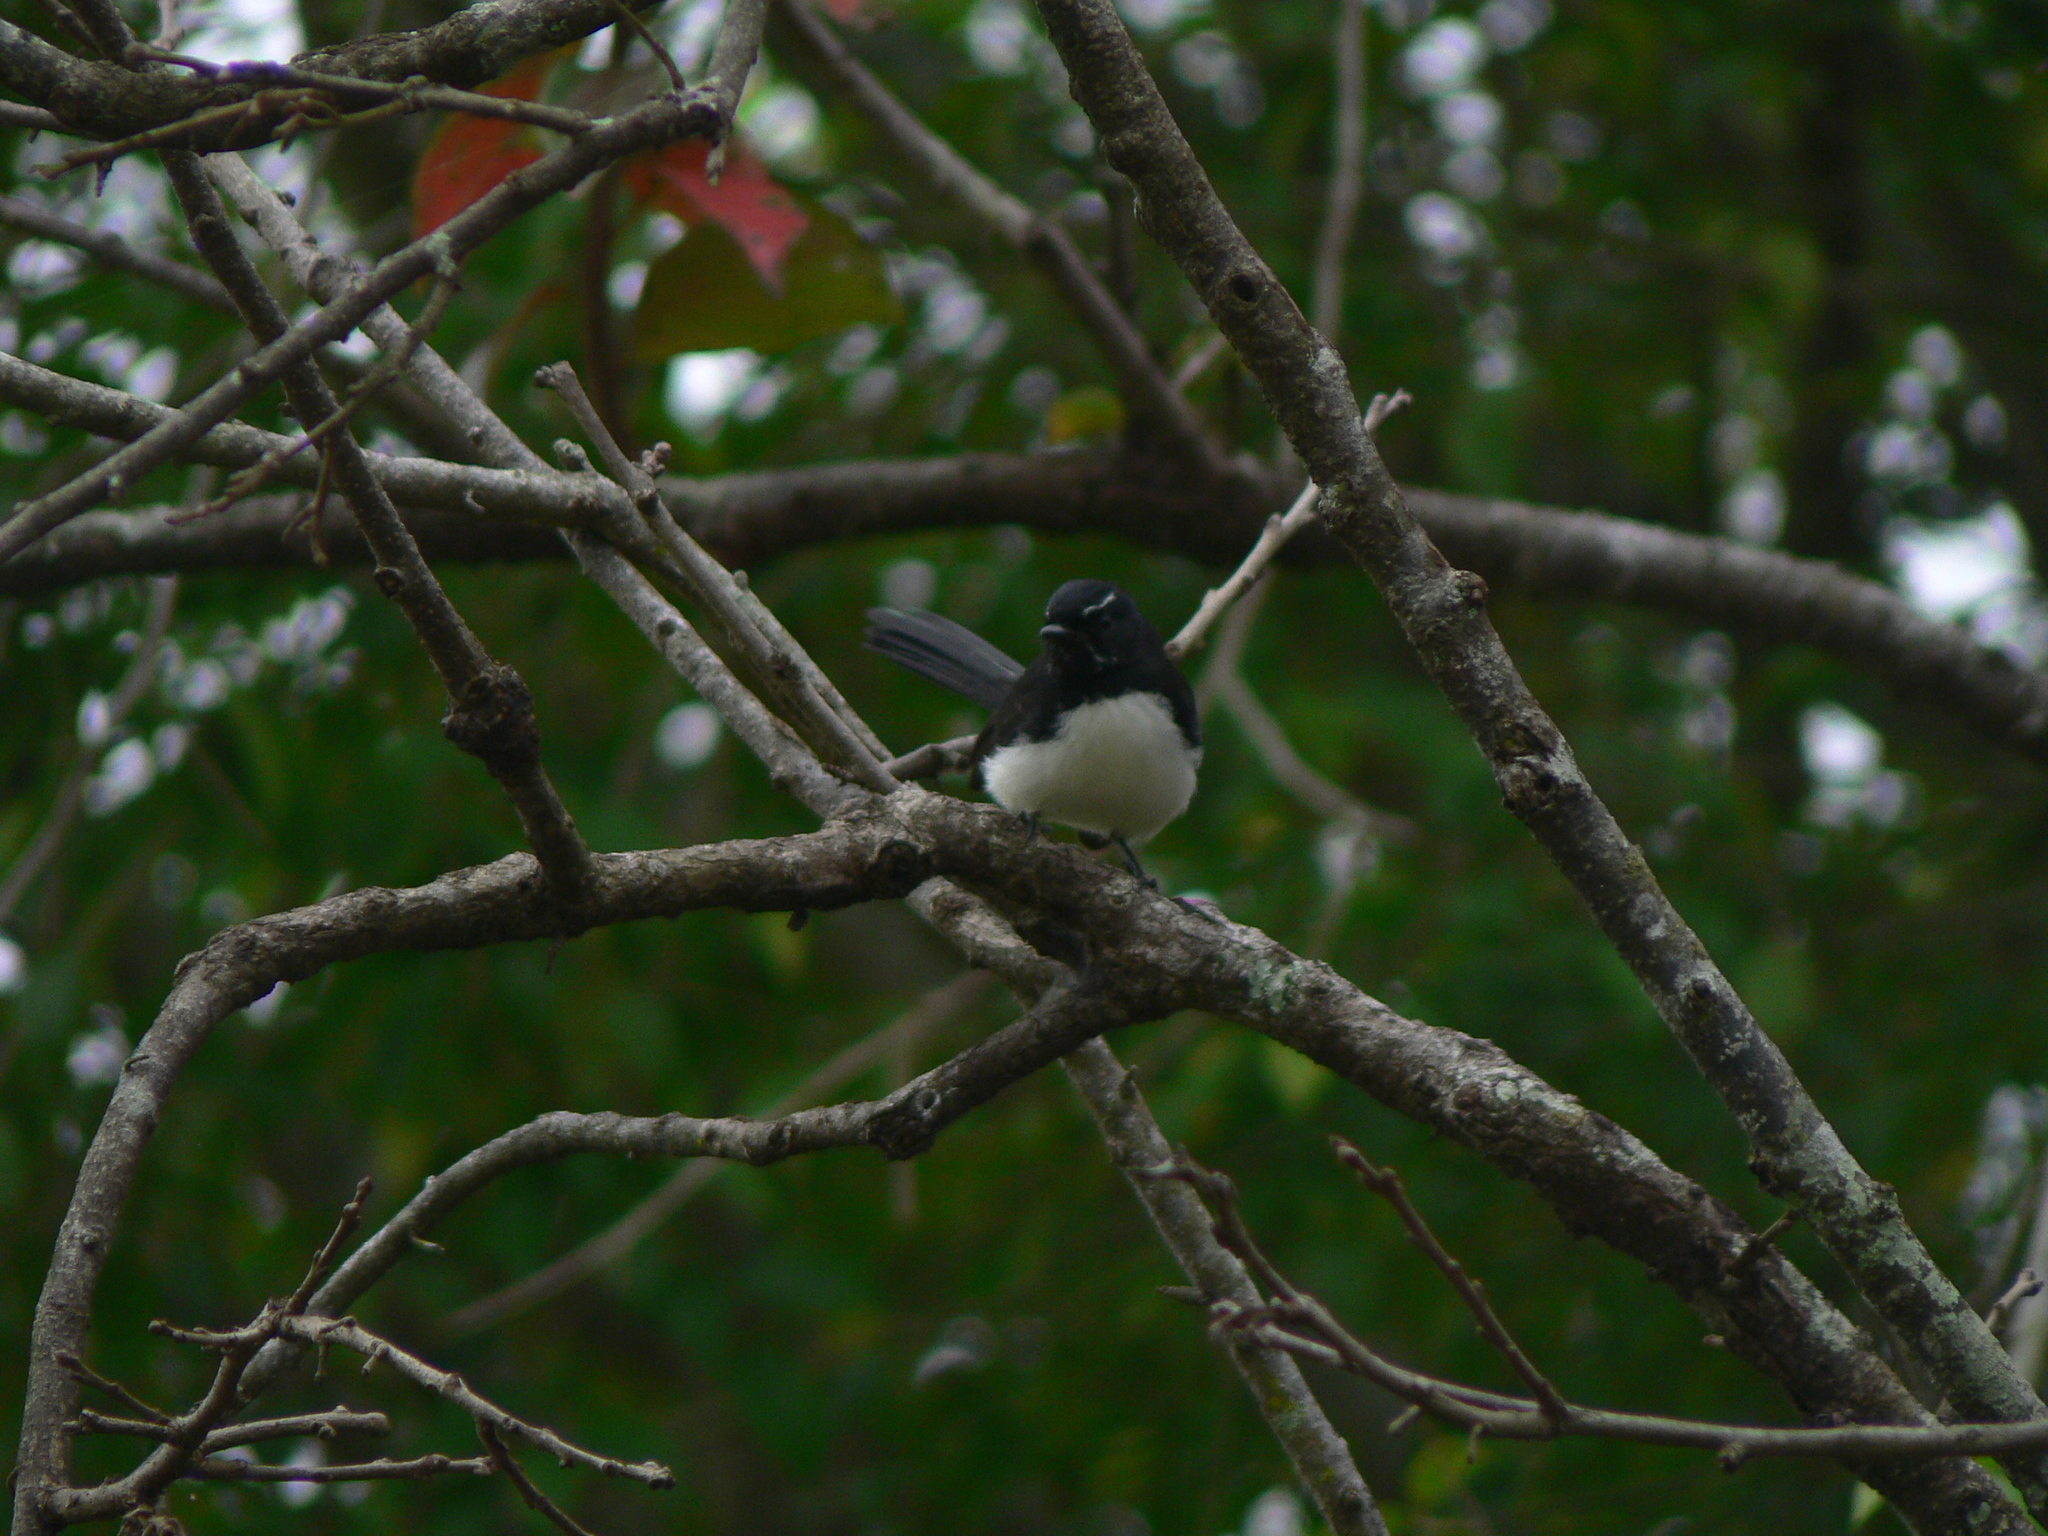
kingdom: Animalia
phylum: Chordata
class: Aves
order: Passeriformes
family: Rhipiduridae
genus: Rhipidura
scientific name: Rhipidura leucophrys
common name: Willie wagtail
